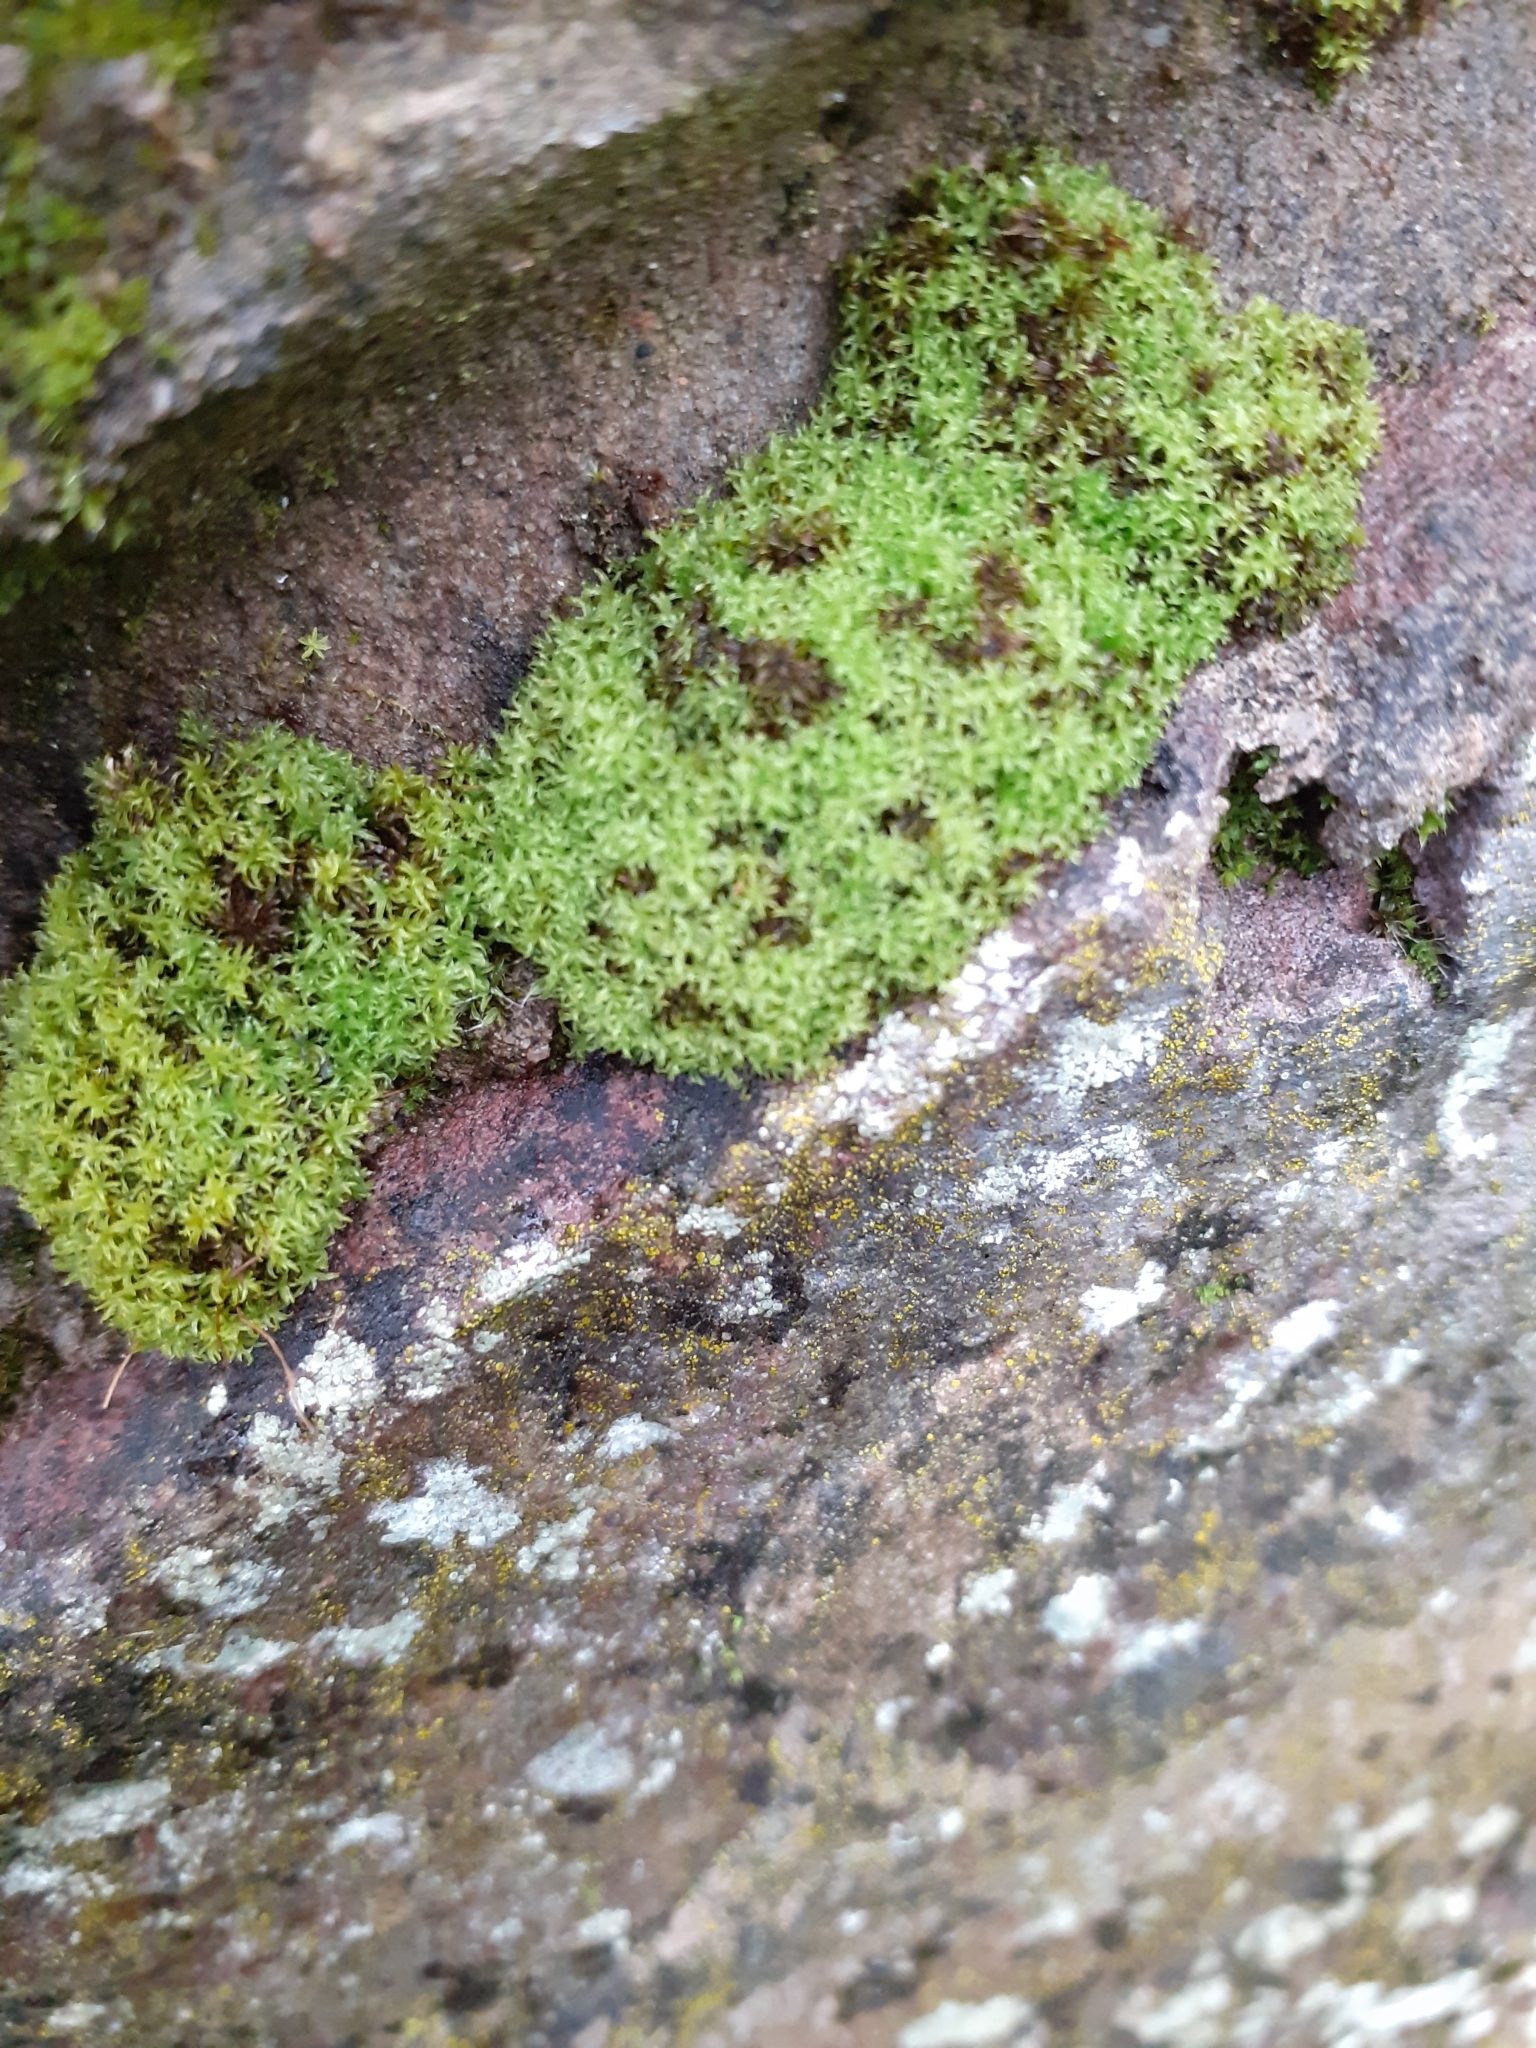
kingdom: Plantae
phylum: Bryophyta
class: Bryopsida
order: Pottiales
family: Pottiaceae
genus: Barbula
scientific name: Barbula unguiculata
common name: Prickly beard moss
